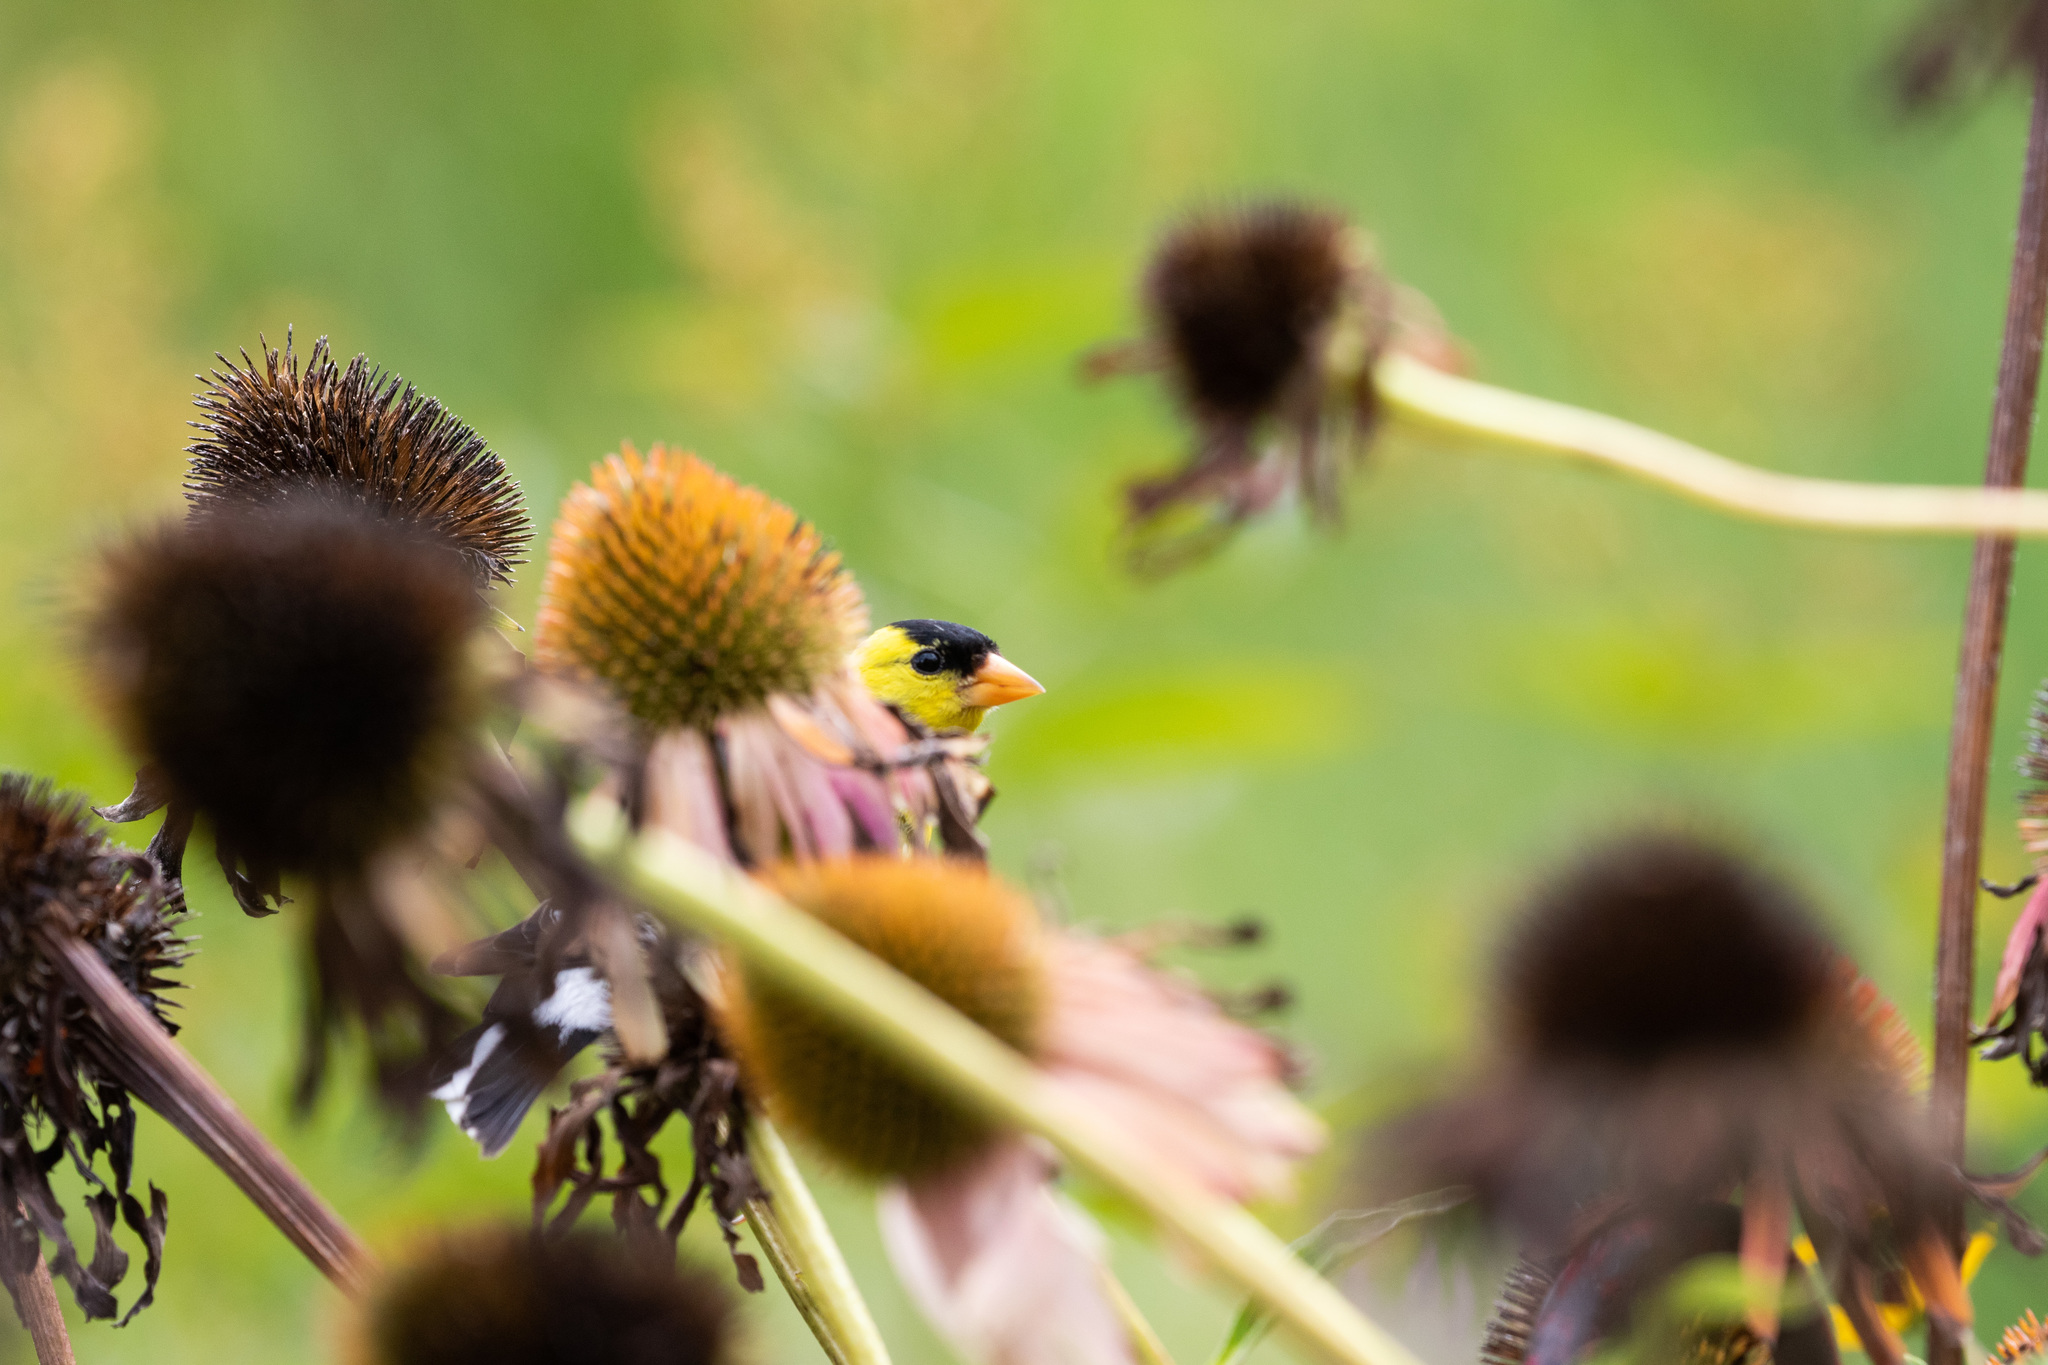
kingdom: Animalia
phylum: Chordata
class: Aves
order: Passeriformes
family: Fringillidae
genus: Spinus
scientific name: Spinus tristis
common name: American goldfinch
